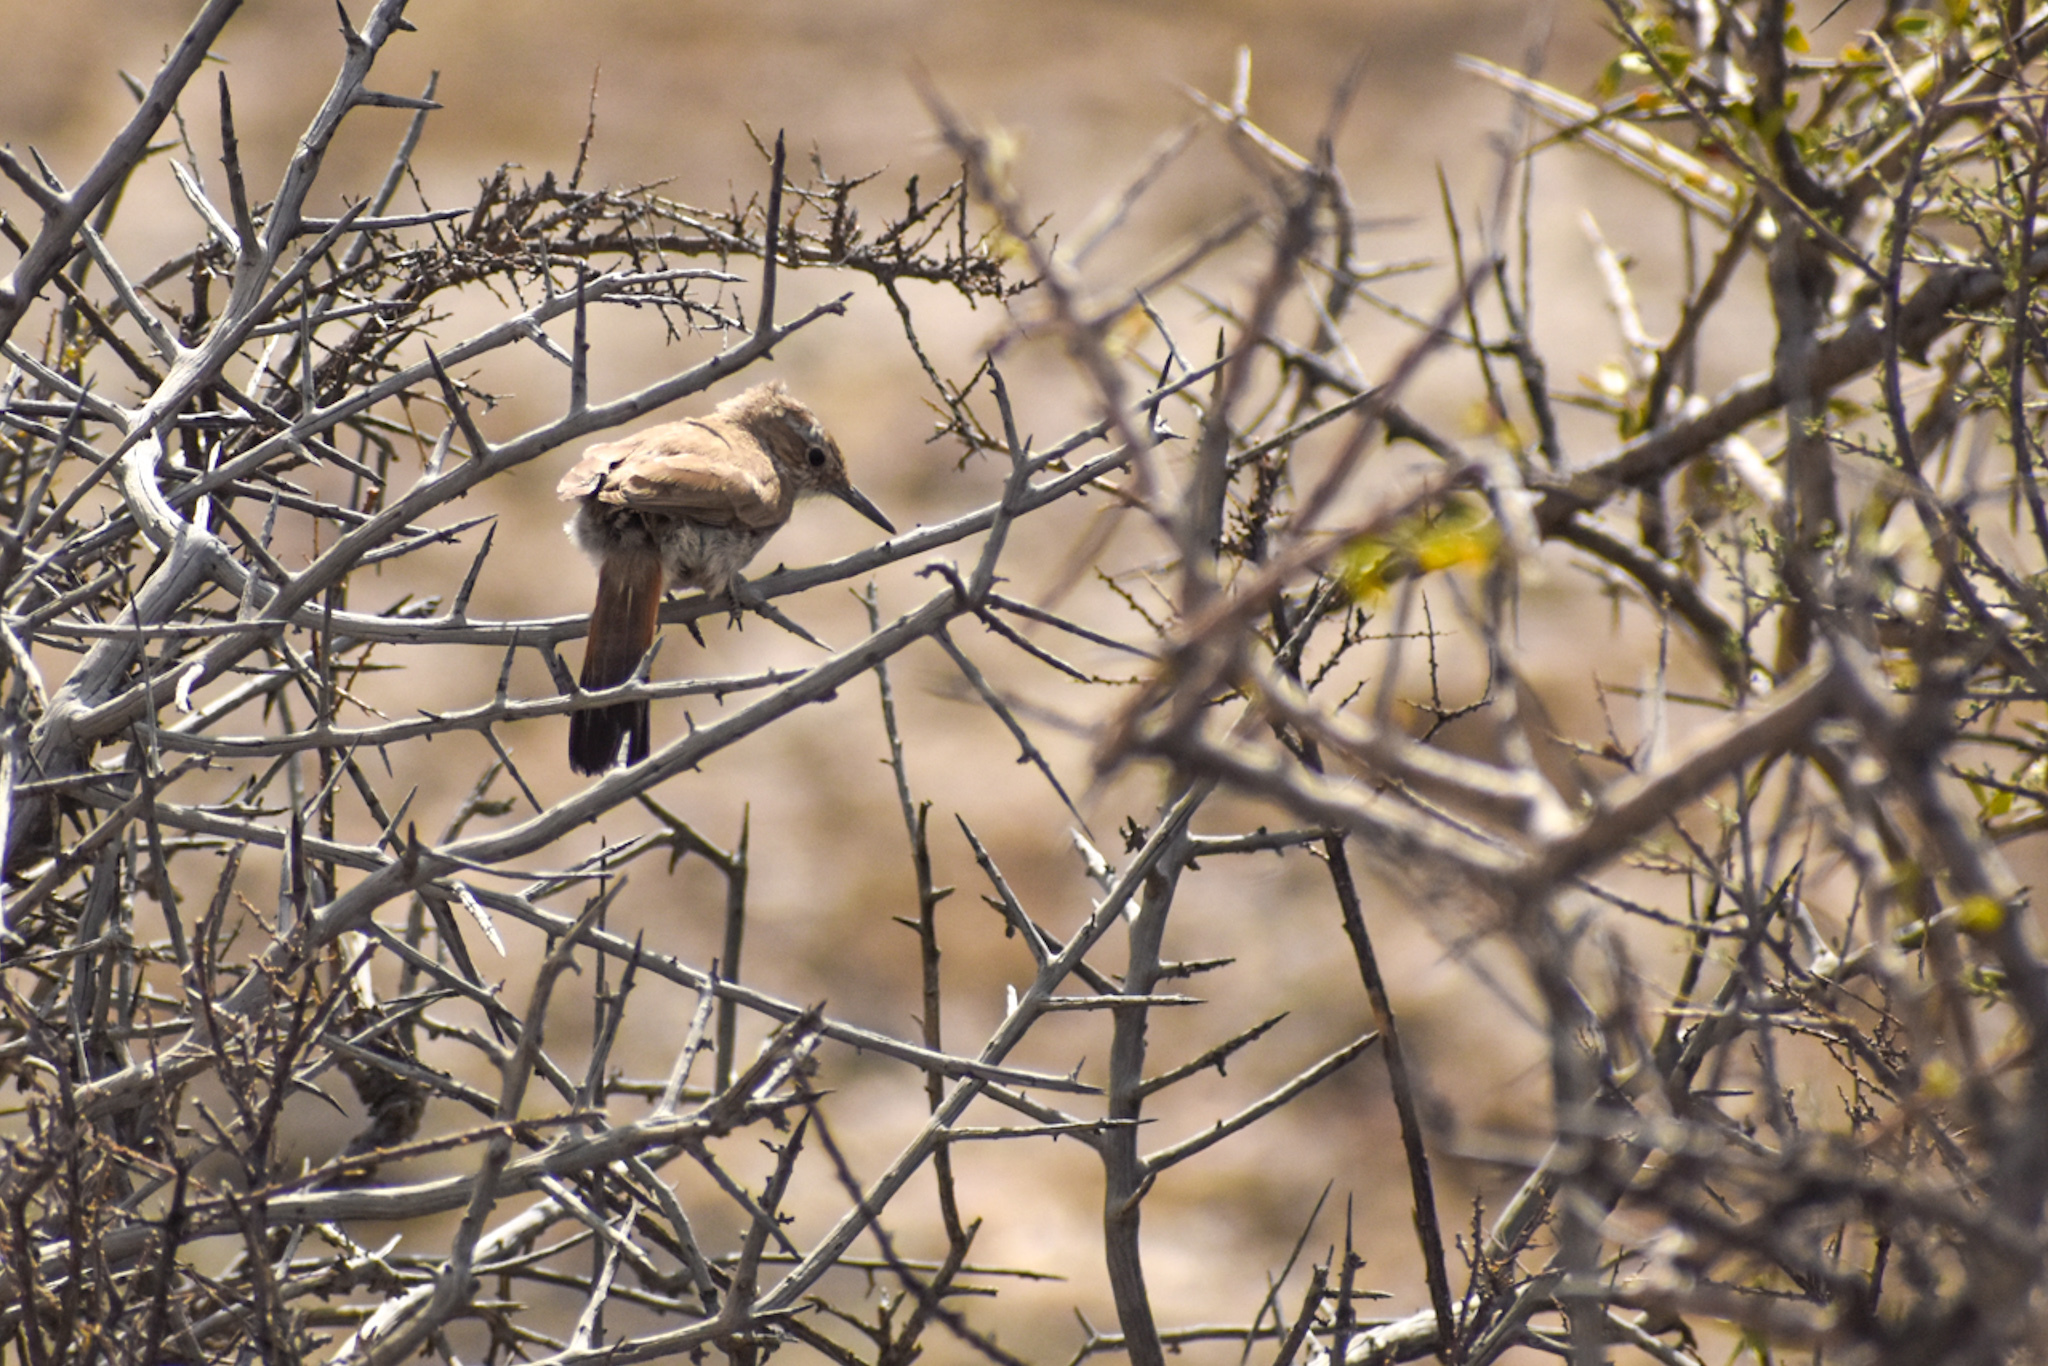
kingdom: Animalia
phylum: Chordata
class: Aves
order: Passeriformes
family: Furnariidae
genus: Eremobius
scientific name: Eremobius phoenicurus
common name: Band-tailed eremobius
